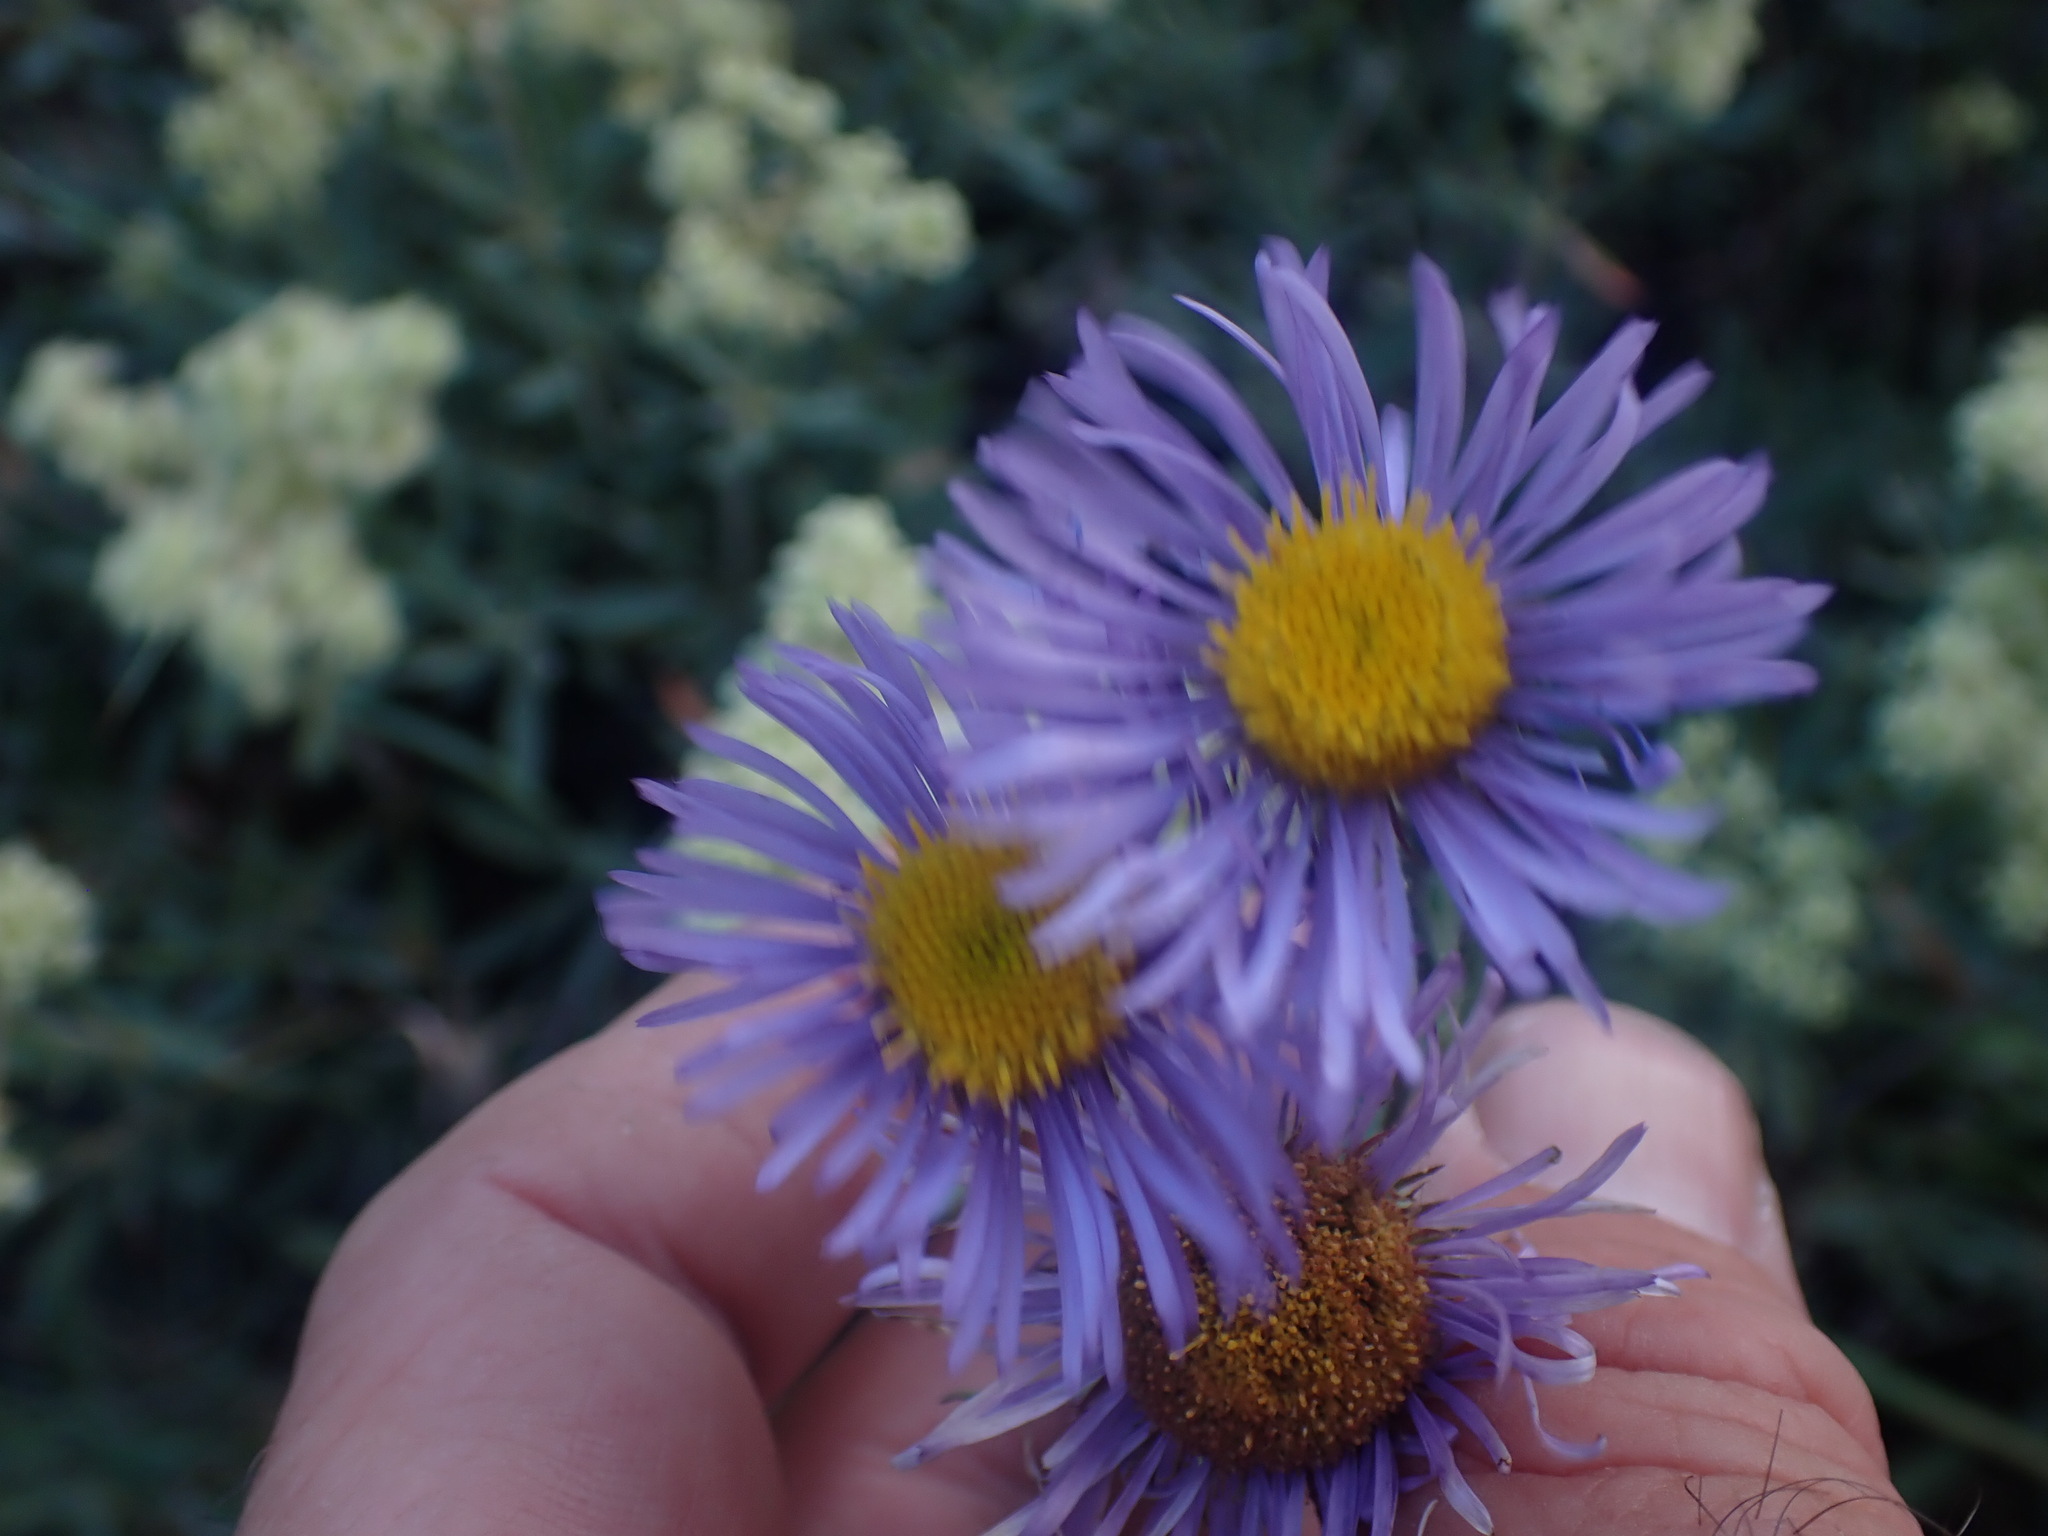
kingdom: Plantae
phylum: Tracheophyta
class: Magnoliopsida
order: Asterales
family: Asteraceae
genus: Erigeron
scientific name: Erigeron speciosus
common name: Aspen fleabane
